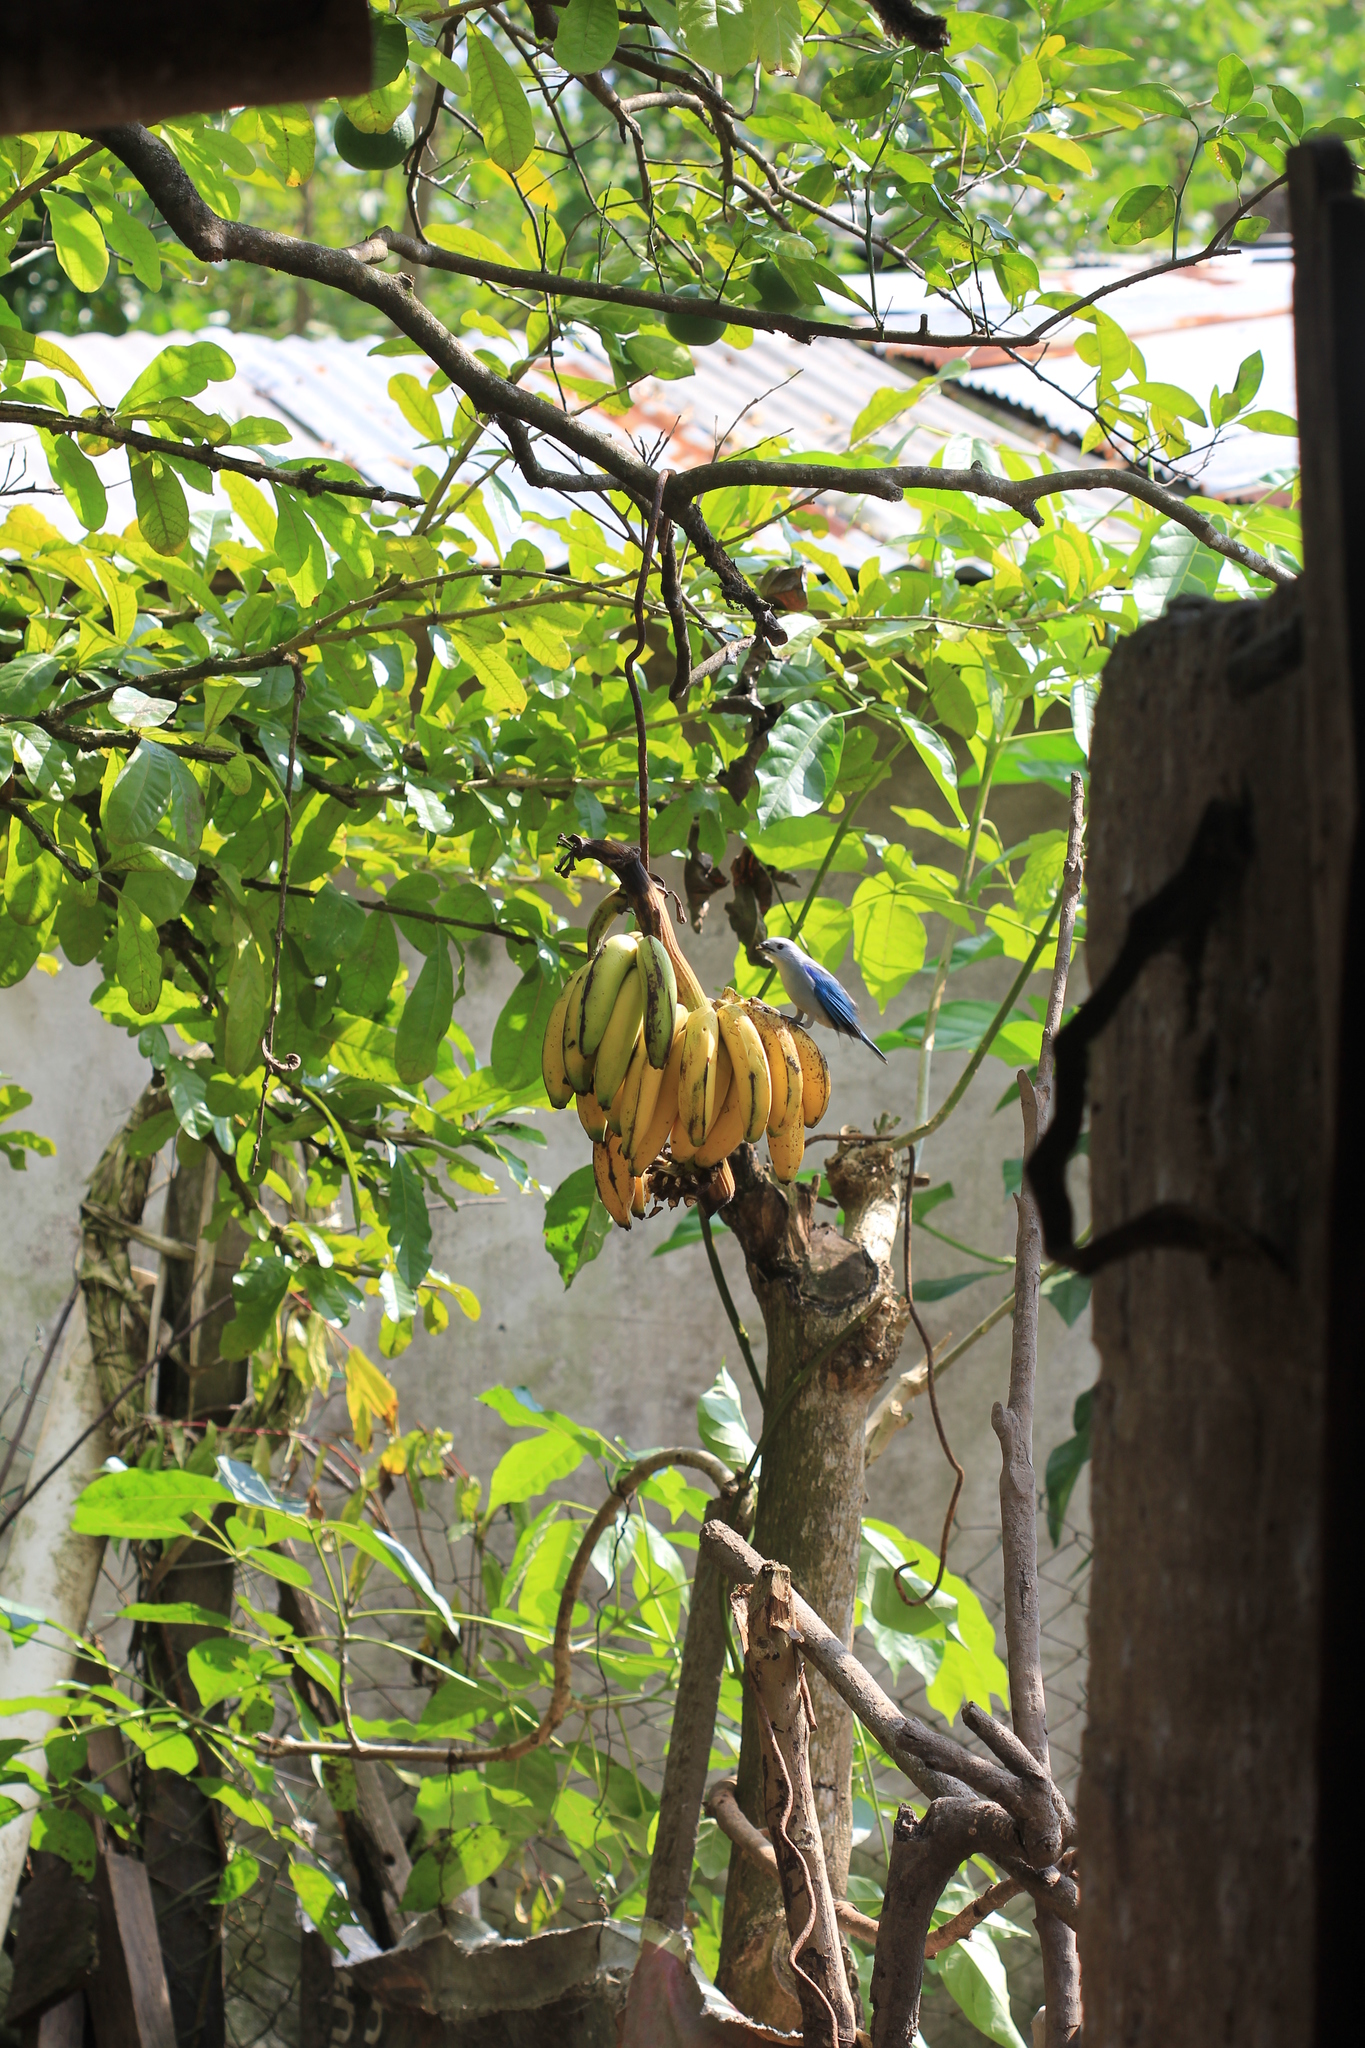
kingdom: Animalia
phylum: Chordata
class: Aves
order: Passeriformes
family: Thraupidae
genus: Thraupis
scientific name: Thraupis episcopus
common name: Blue-grey tanager
